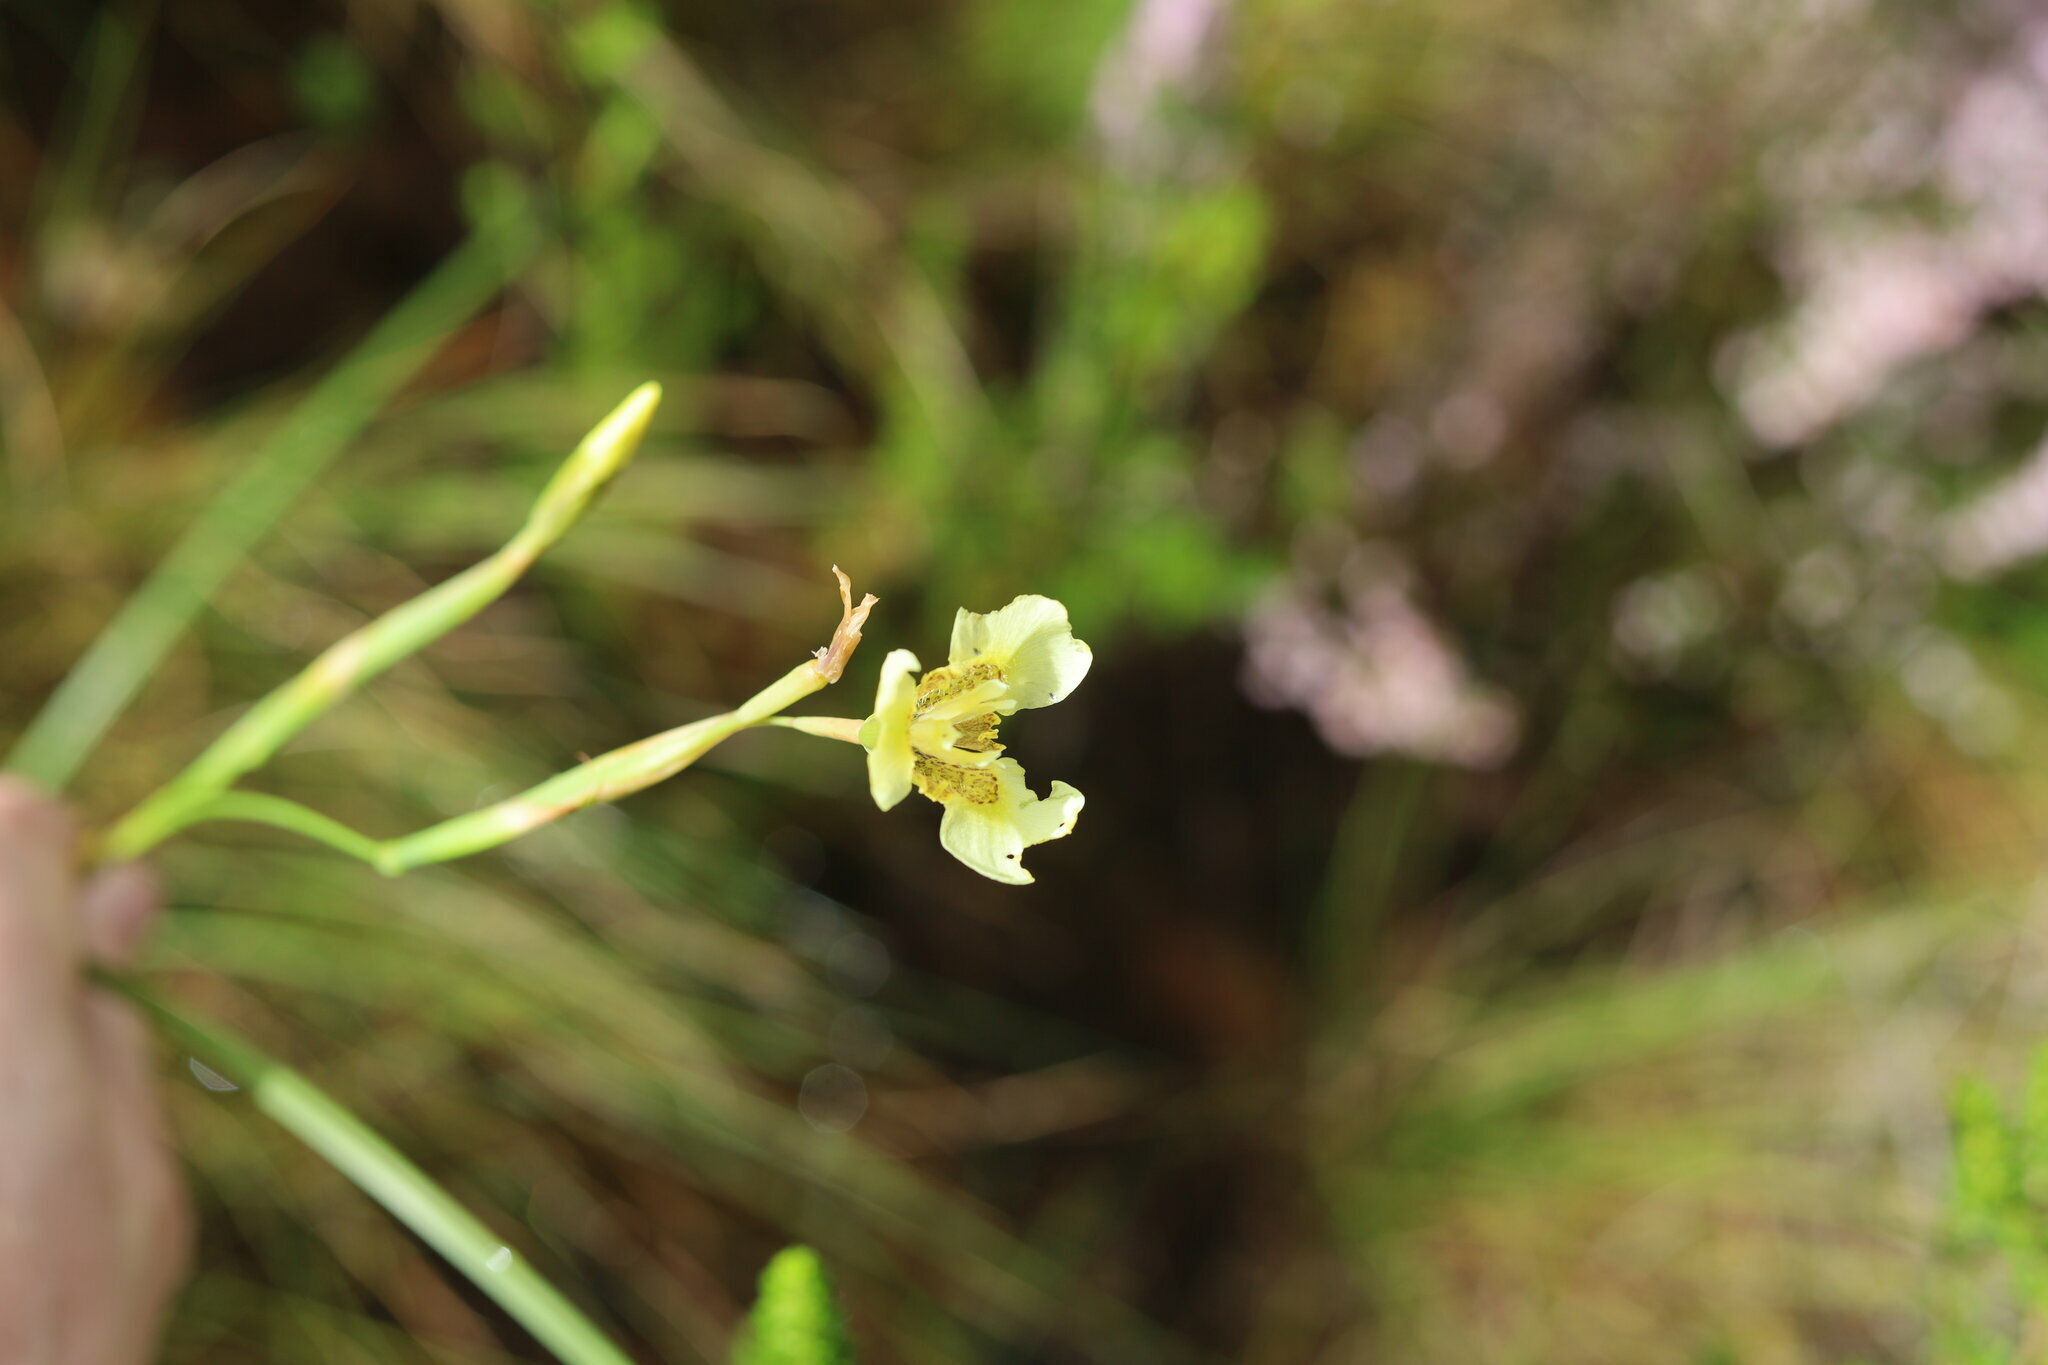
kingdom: Plantae
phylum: Tracheophyta
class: Liliopsida
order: Asparagales
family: Iridaceae
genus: Moraea
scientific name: Moraea bellendenii
